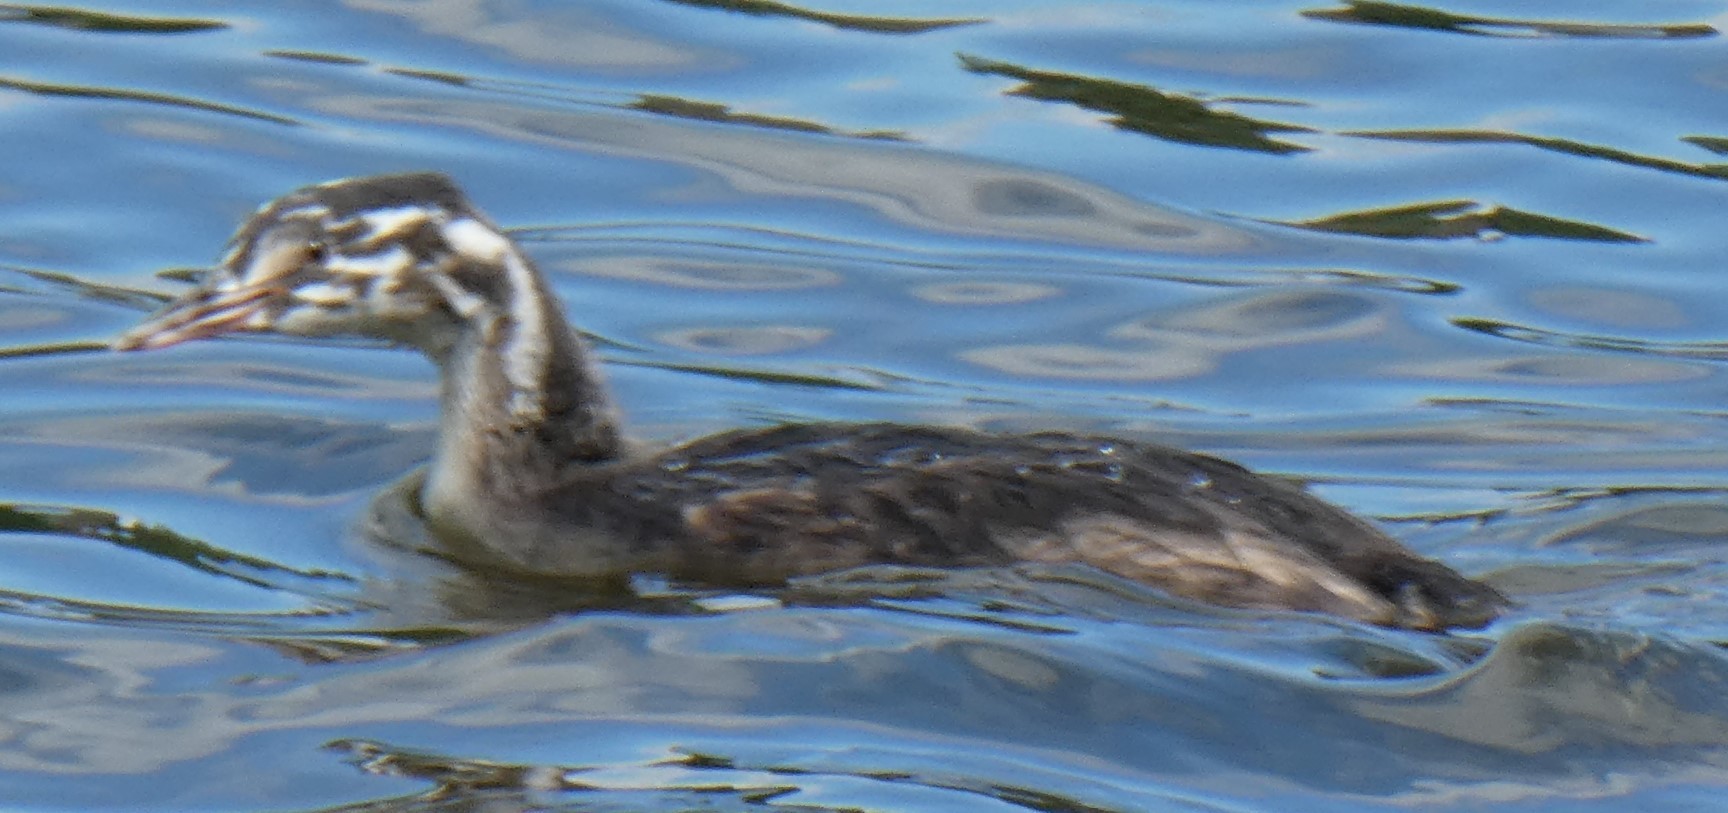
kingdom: Animalia
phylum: Chordata
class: Aves
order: Podicipediformes
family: Podicipedidae
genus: Podiceps
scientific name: Podiceps cristatus
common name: Great crested grebe
